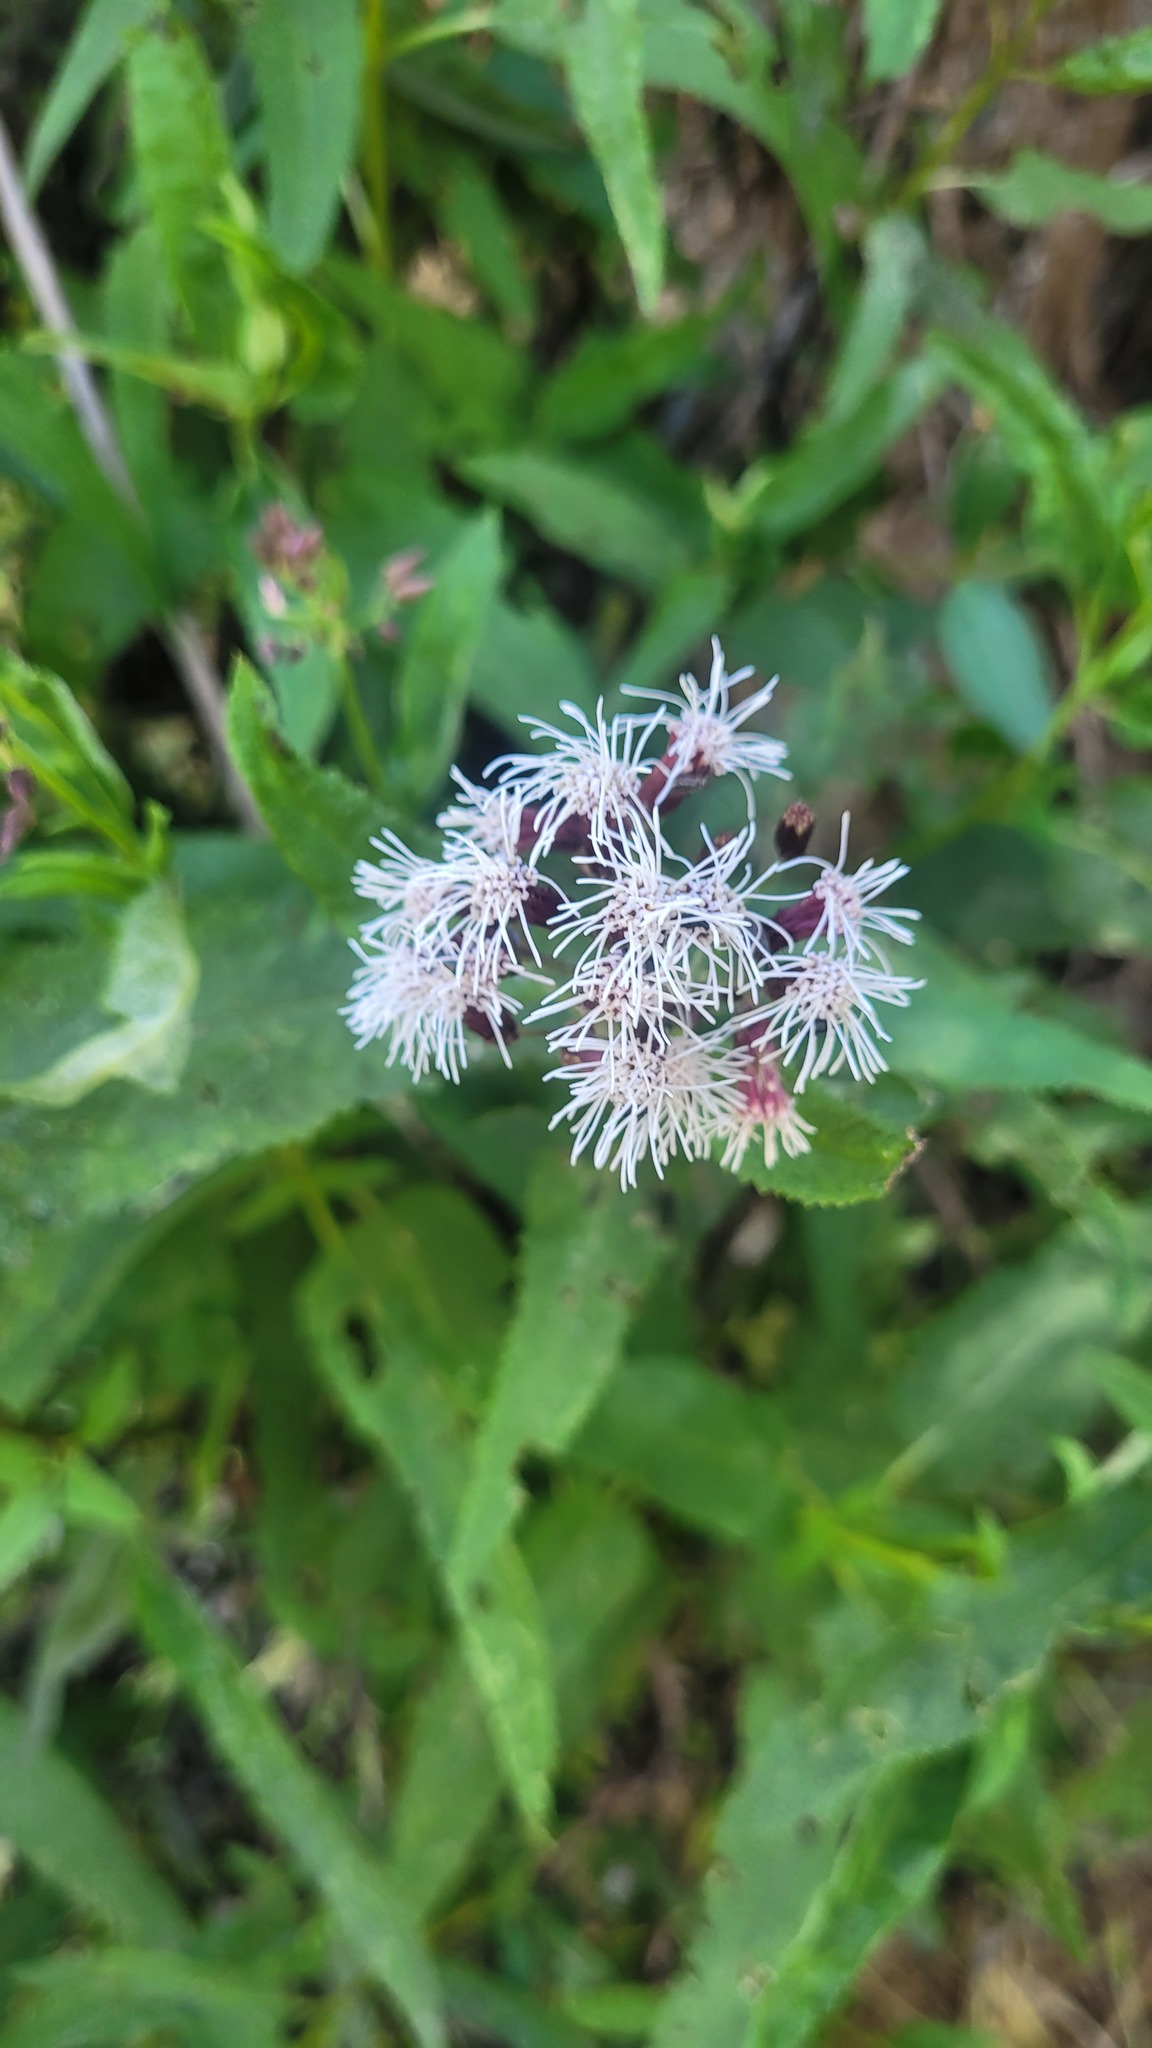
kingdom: Plantae
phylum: Tracheophyta
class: Magnoliopsida
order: Asterales
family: Asteraceae
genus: Aristeguietia
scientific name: Aristeguietia salvia
